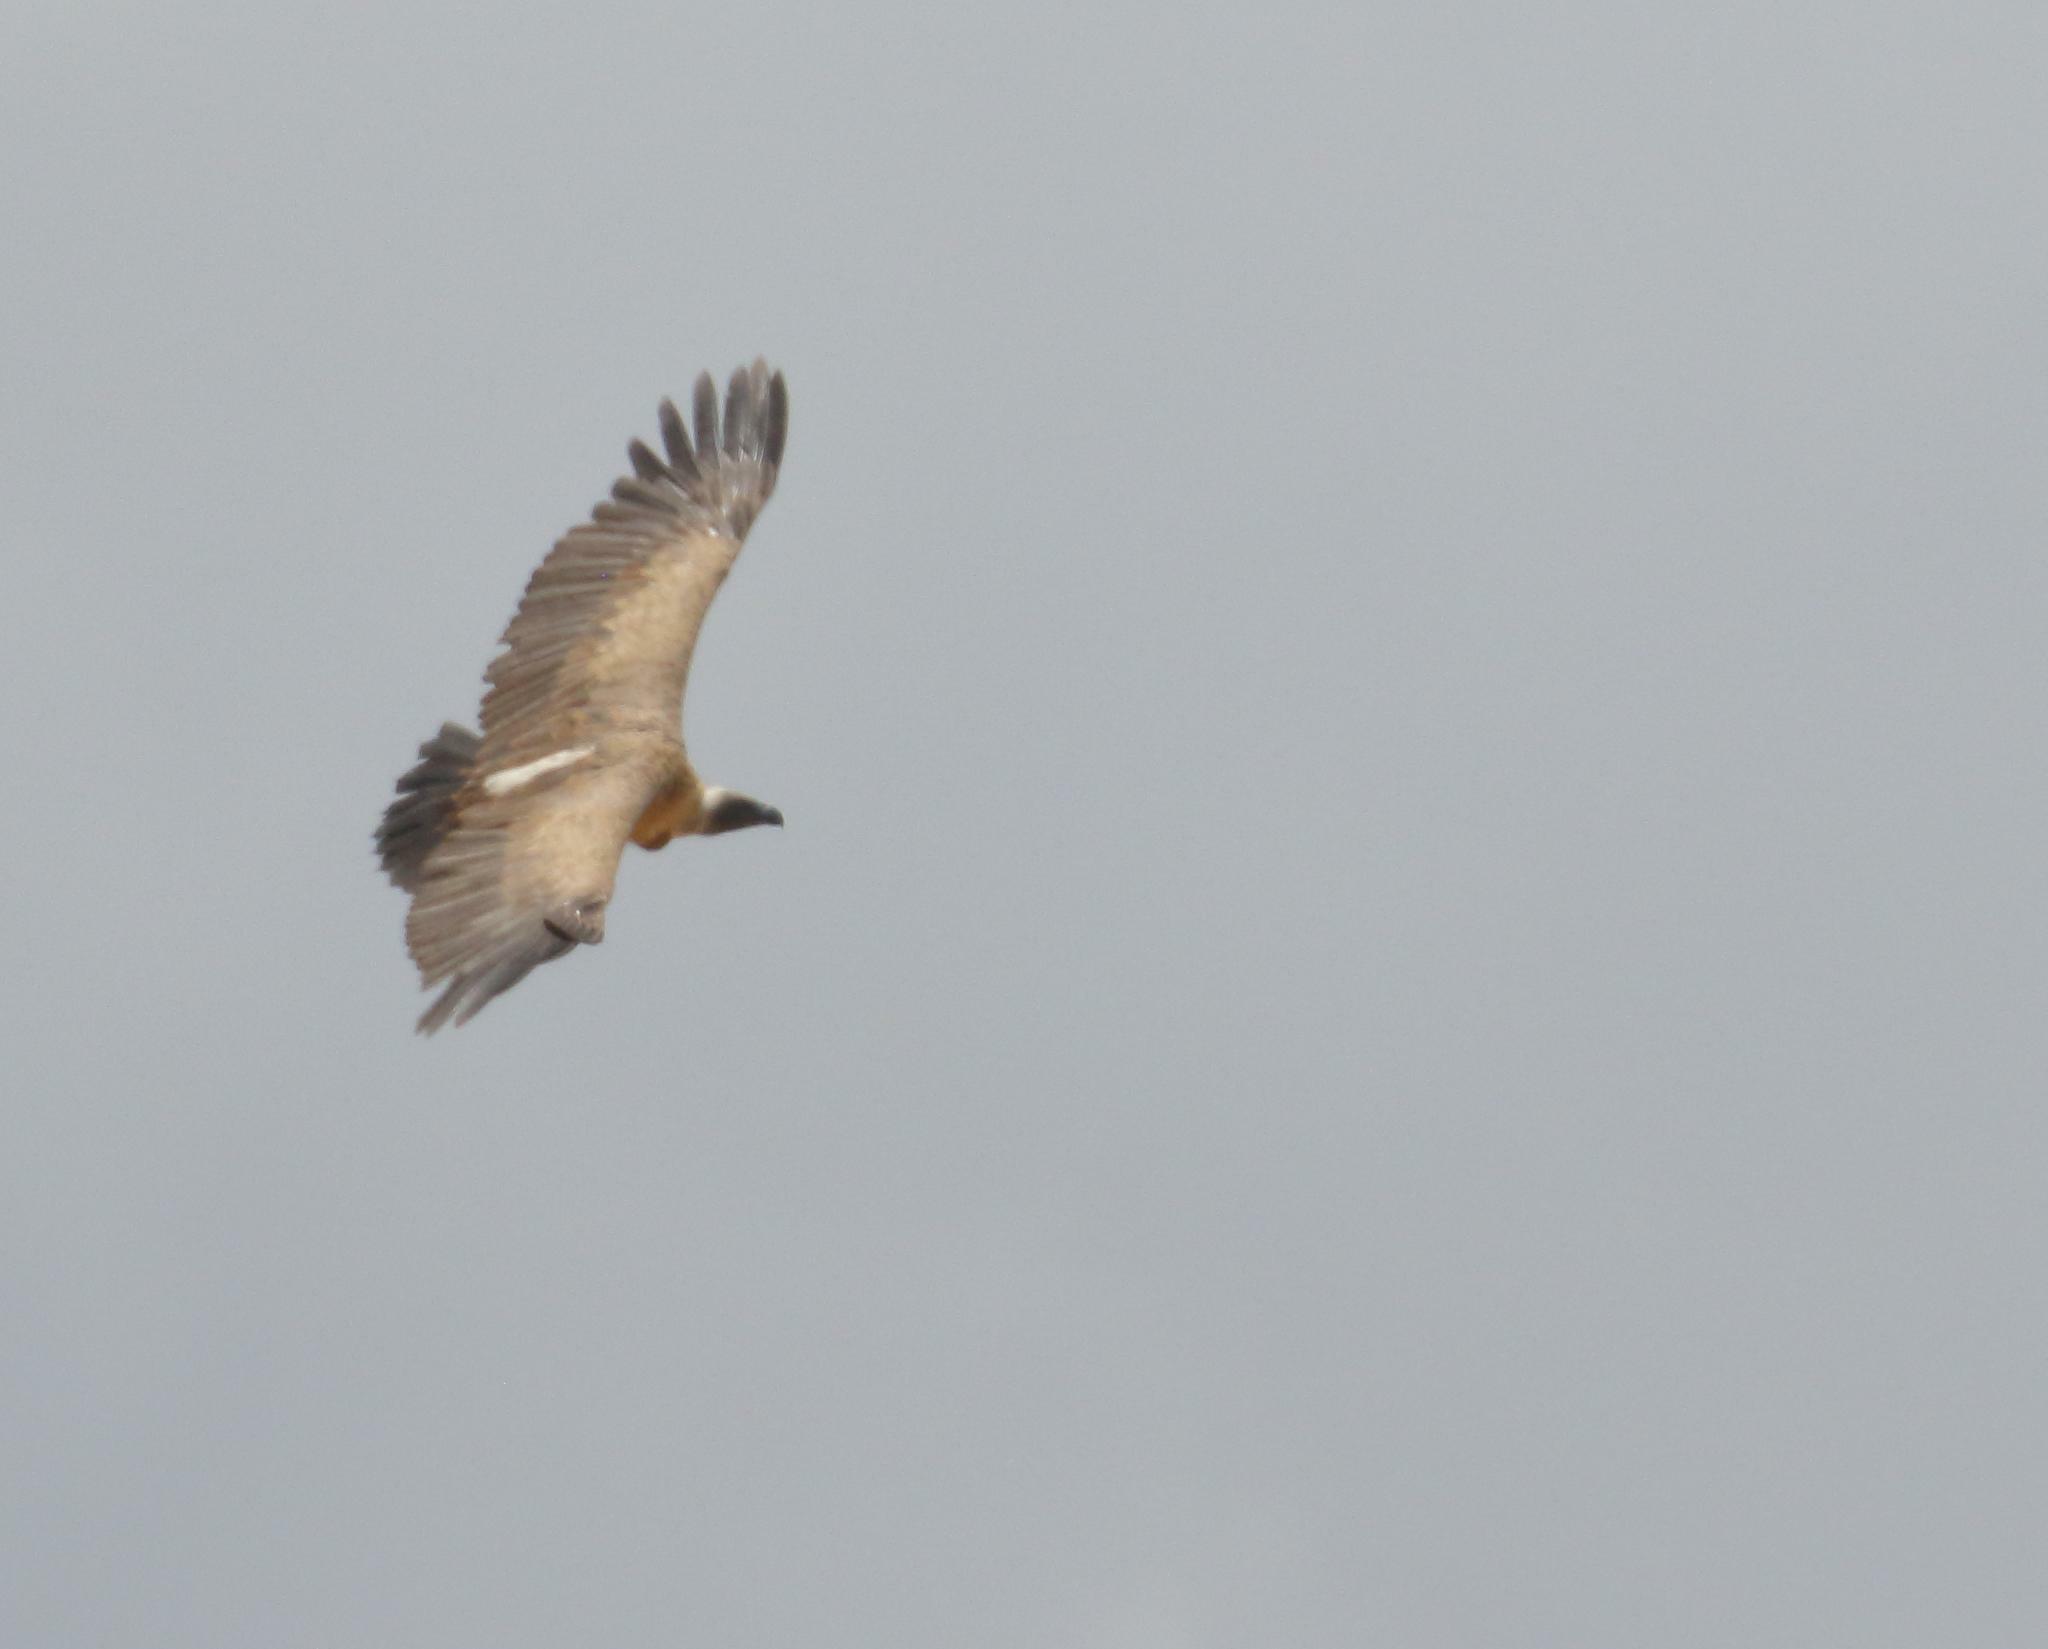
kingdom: Animalia
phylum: Chordata
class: Aves
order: Accipitriformes
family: Accipitridae
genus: Gyps
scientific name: Gyps africanus
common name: White-backed vulture
